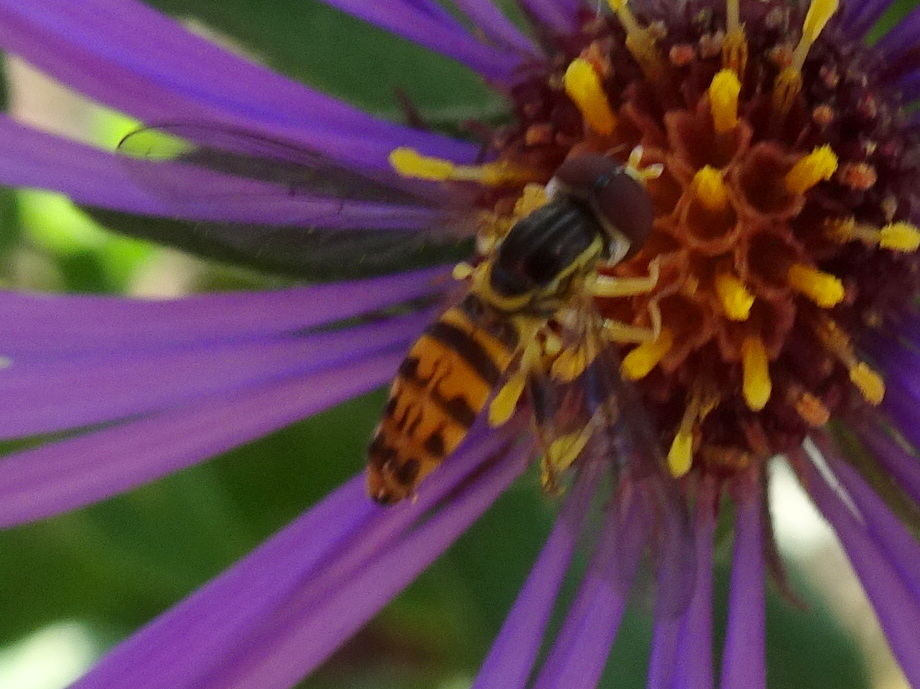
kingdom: Animalia
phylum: Arthropoda
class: Insecta
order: Diptera
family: Syrphidae
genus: Toxomerus
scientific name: Toxomerus geminatus
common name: Eastern calligrapher
